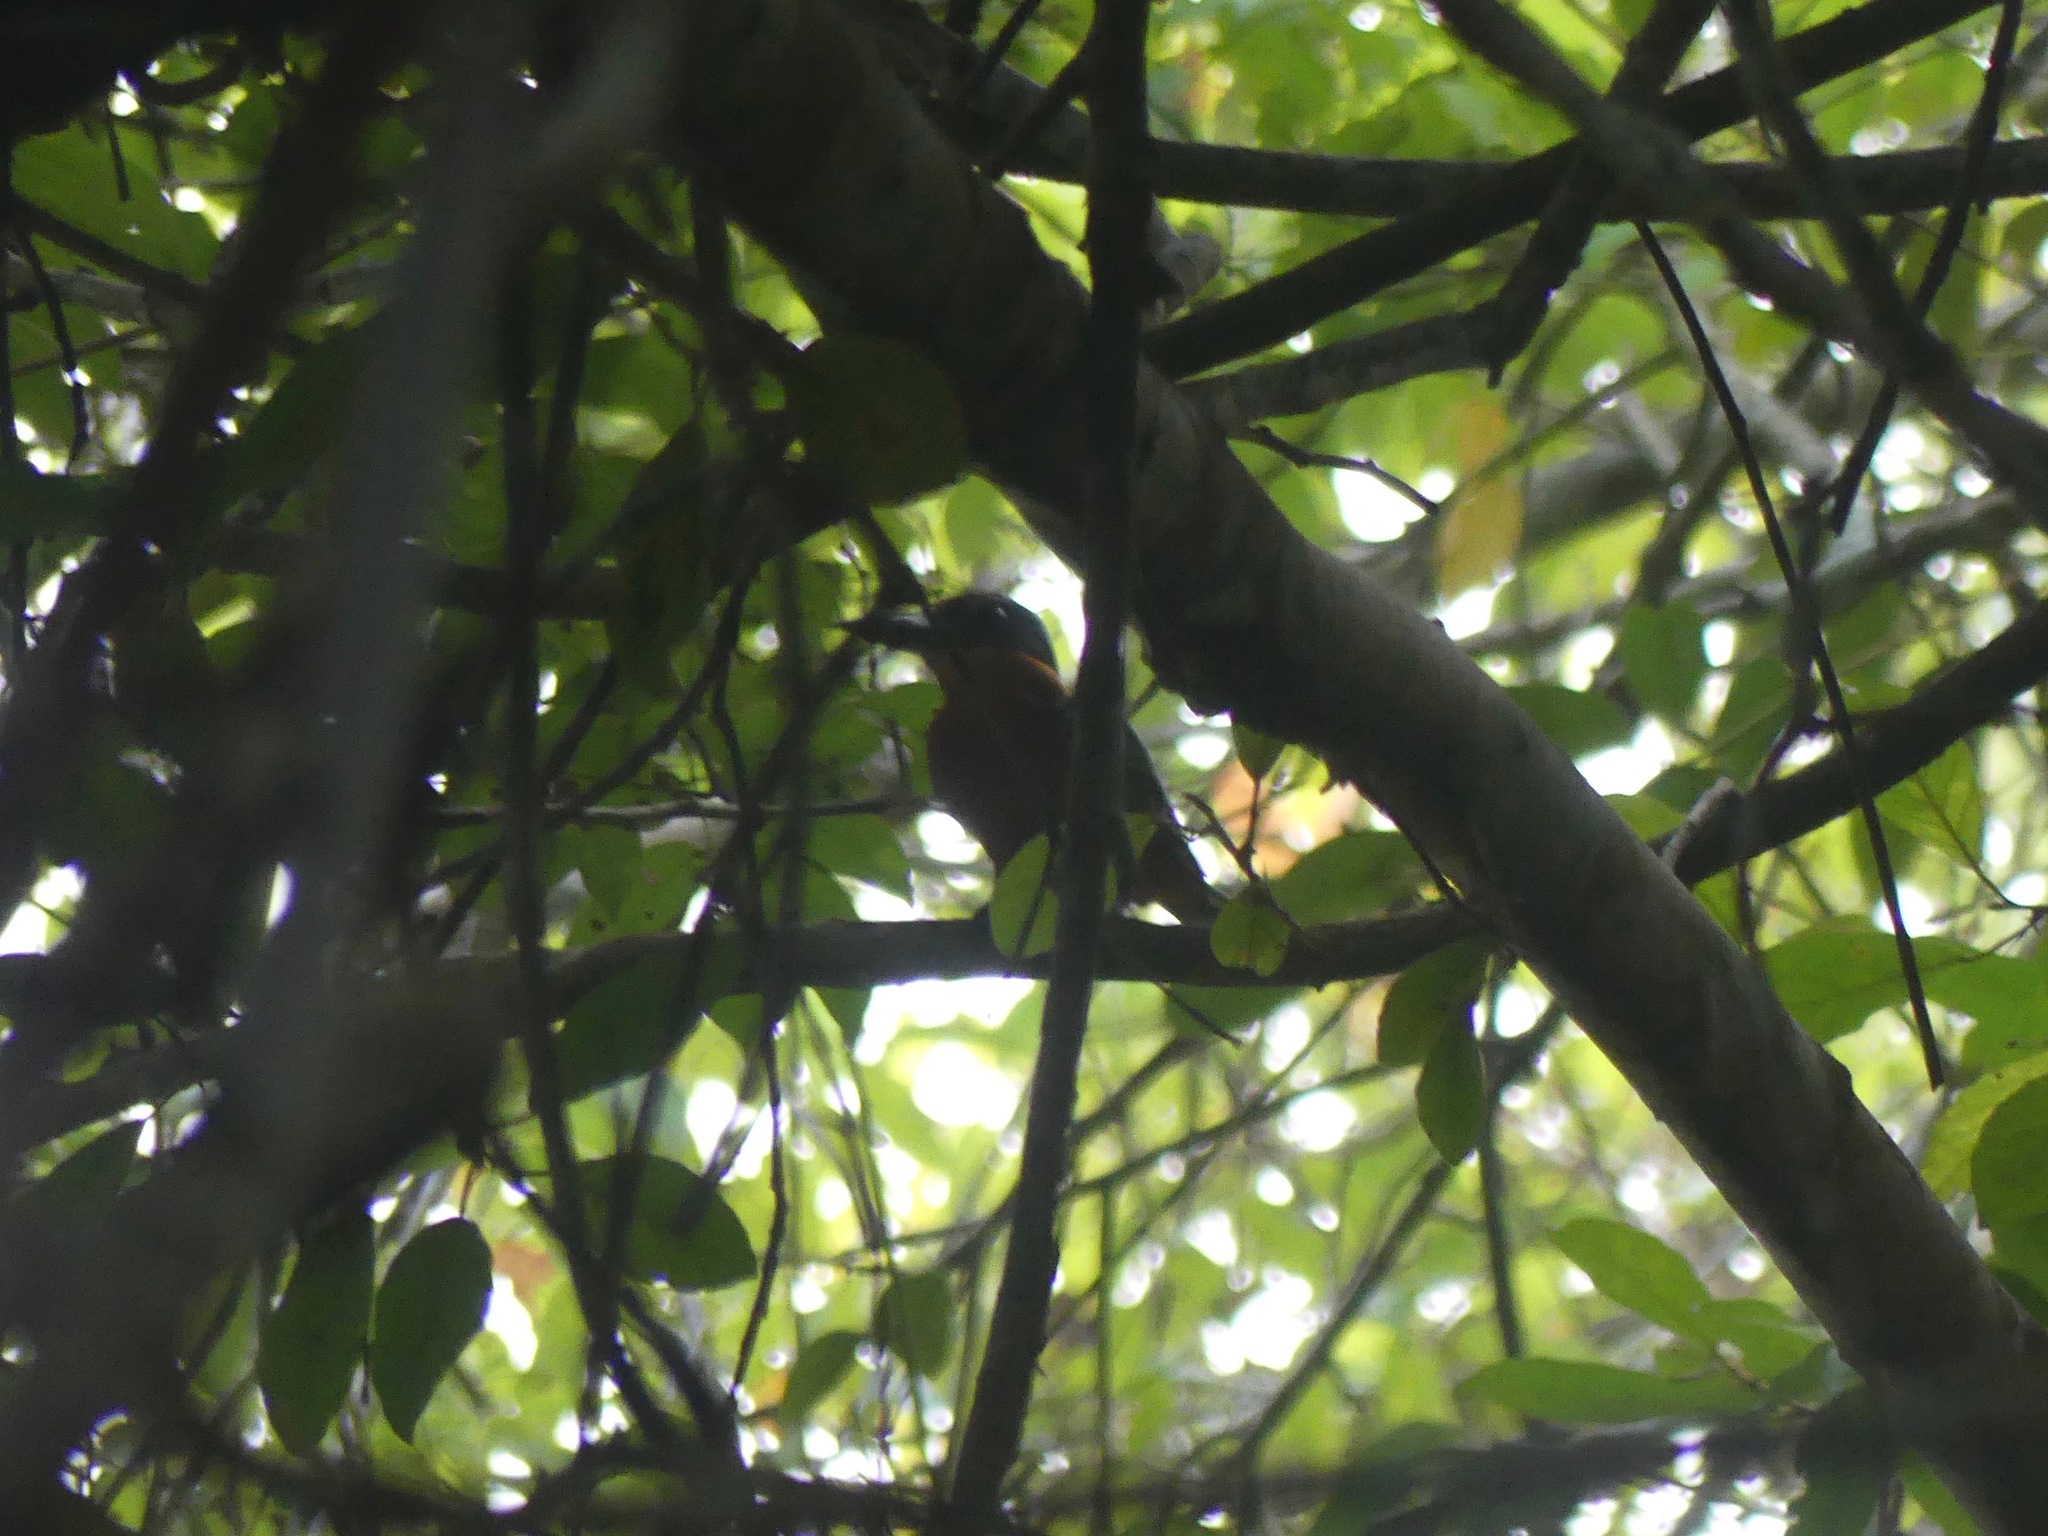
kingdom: Animalia
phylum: Chordata
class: Aves
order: Coraciiformes
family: Alcedinidae
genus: Chloroceryle
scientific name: Chloroceryle inda
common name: Green-and-rufous kingfisher
